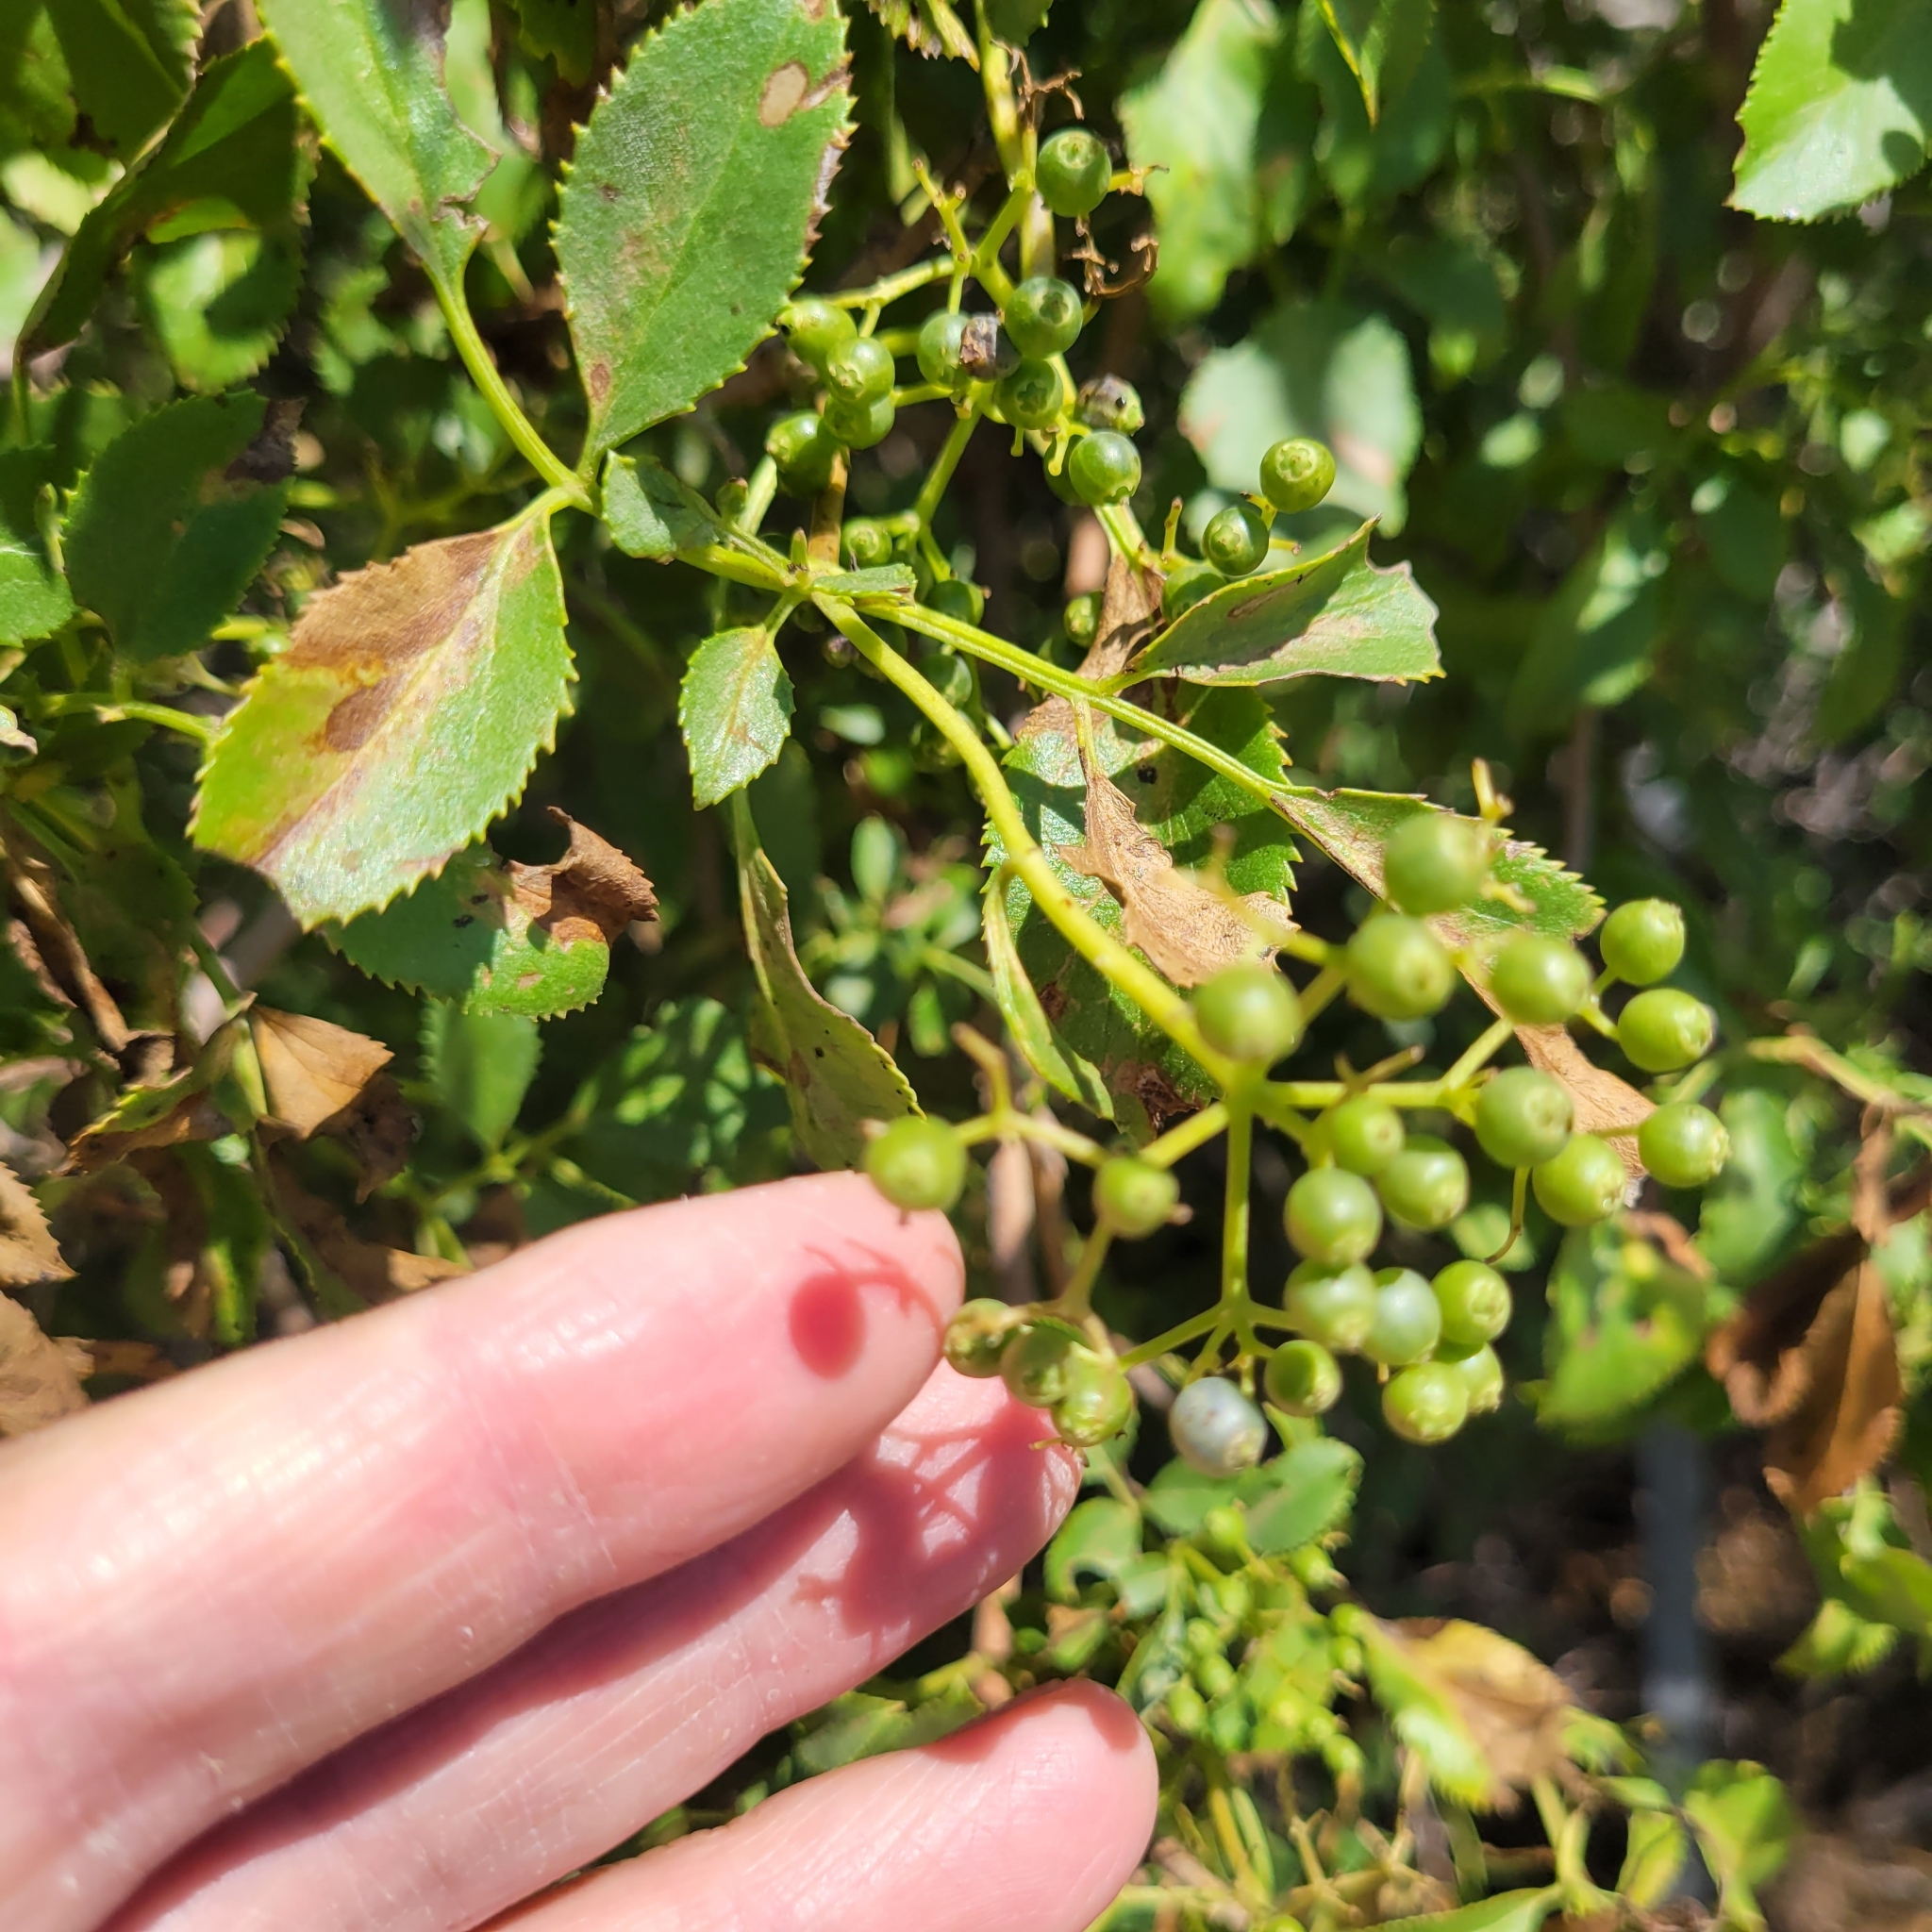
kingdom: Plantae
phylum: Tracheophyta
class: Magnoliopsida
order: Dipsacales
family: Viburnaceae
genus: Sambucus
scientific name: Sambucus cerulea
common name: Blue elder
